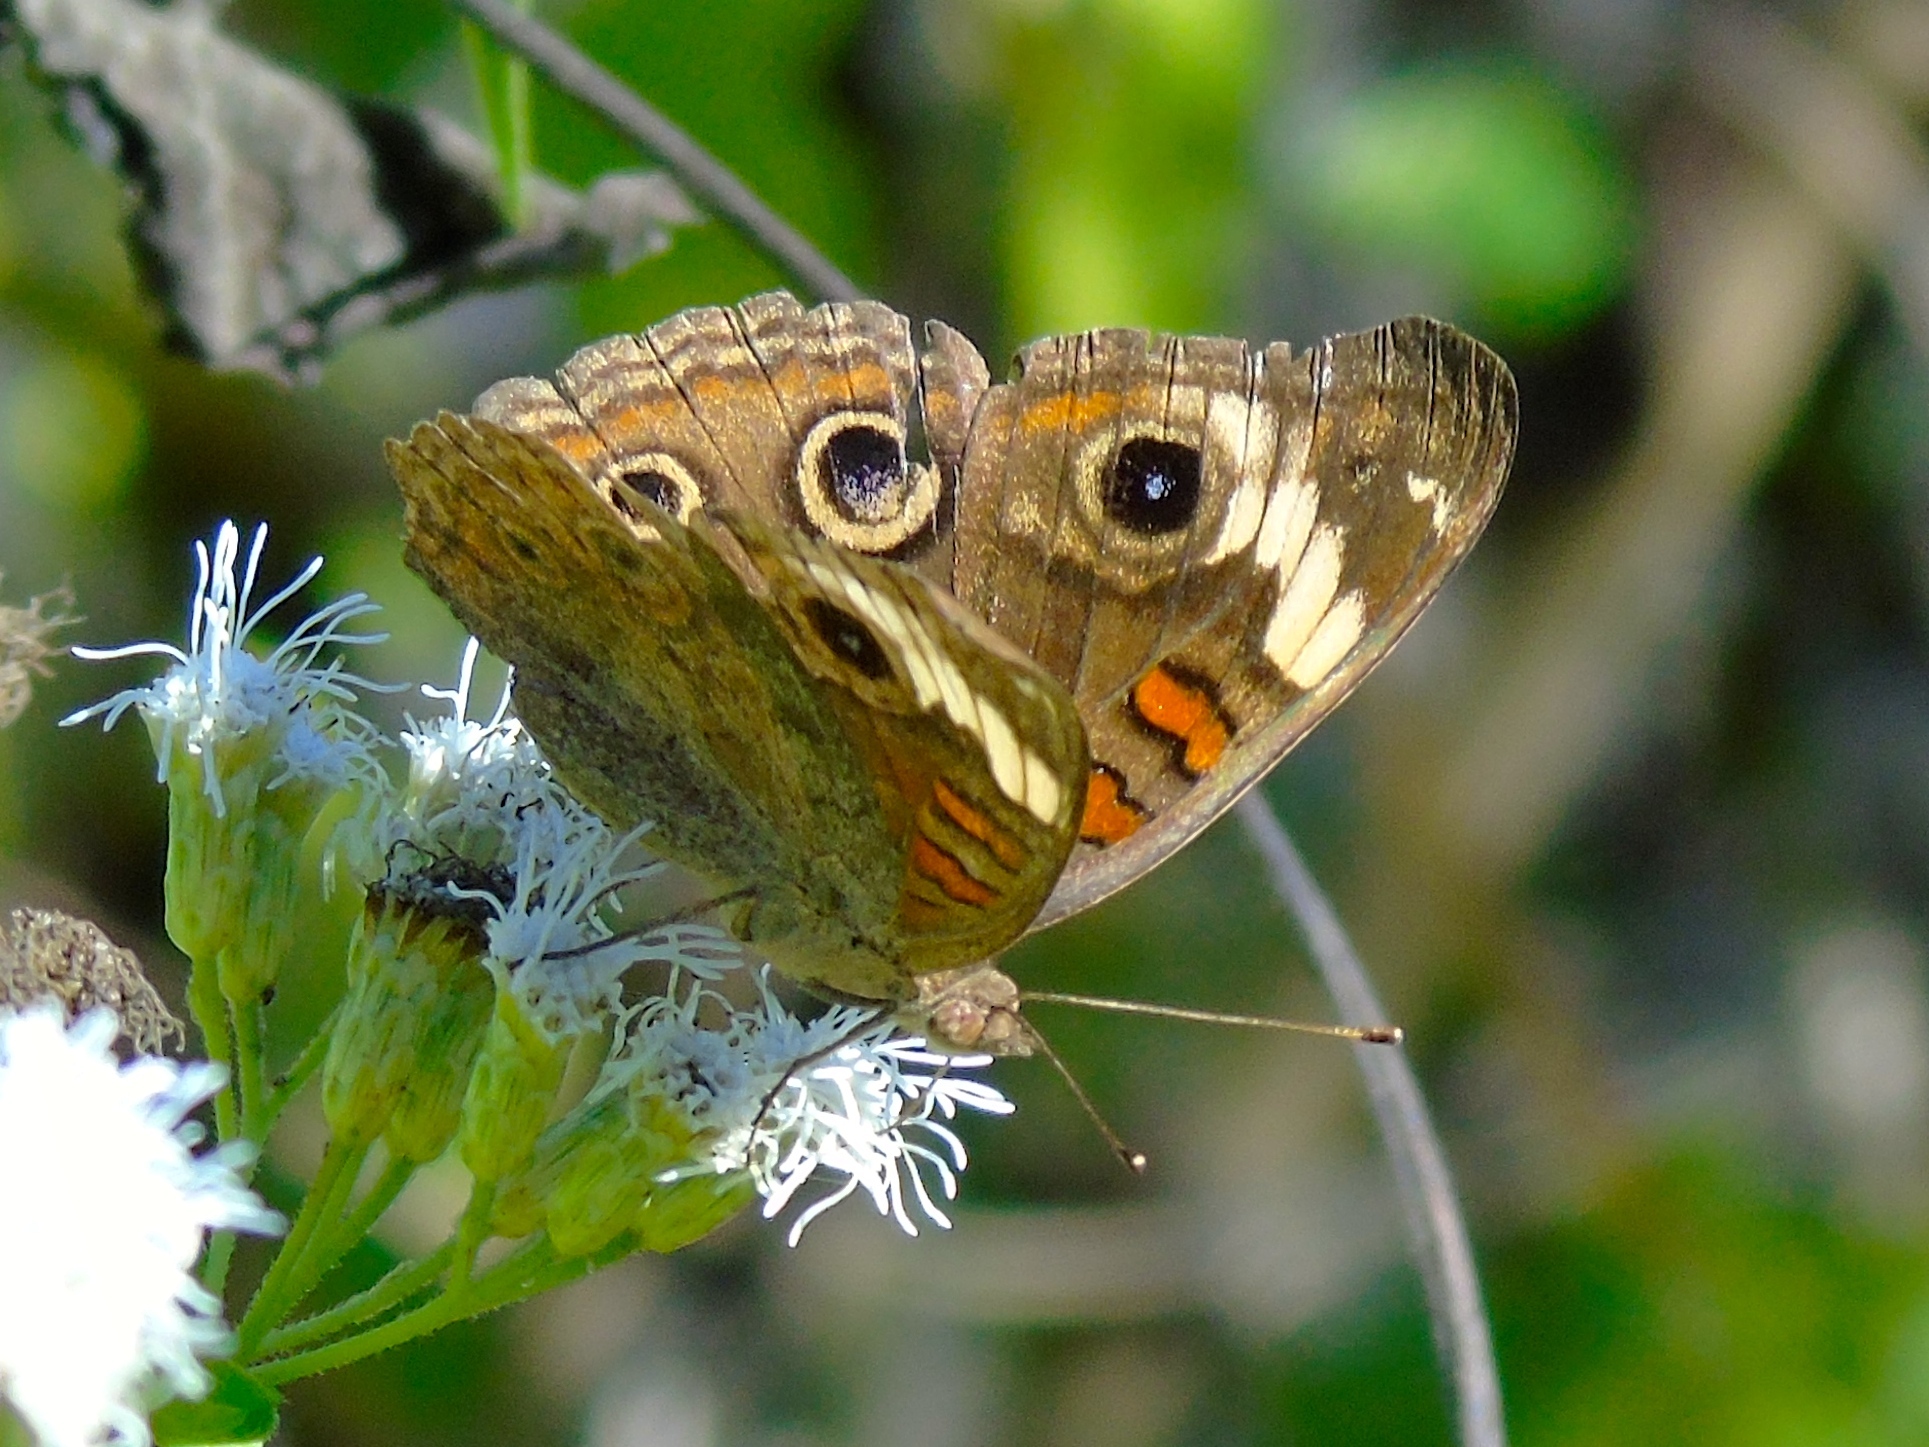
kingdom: Animalia
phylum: Arthropoda
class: Insecta
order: Lepidoptera
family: Nymphalidae
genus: Junonia
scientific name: Junonia
